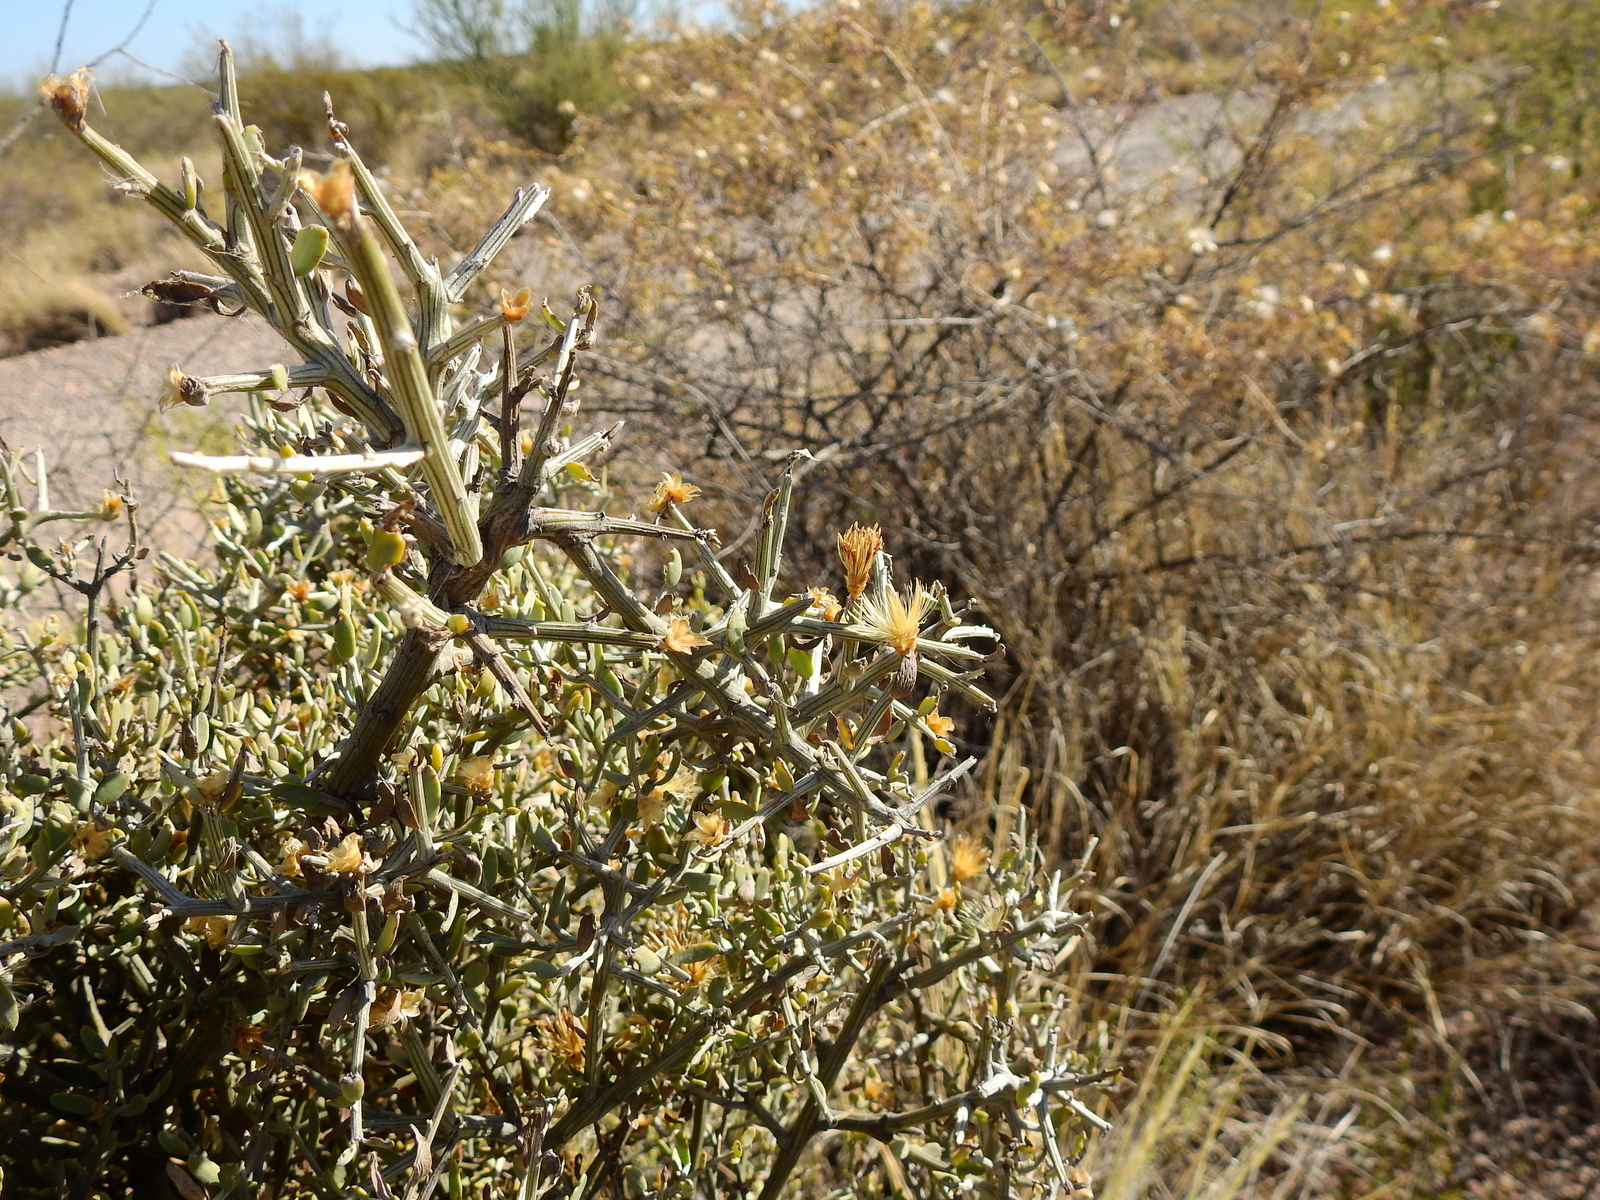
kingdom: Plantae
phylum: Tracheophyta
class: Magnoliopsida
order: Asterales
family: Asteraceae
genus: Cyclolepis
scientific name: Cyclolepis genistoides
